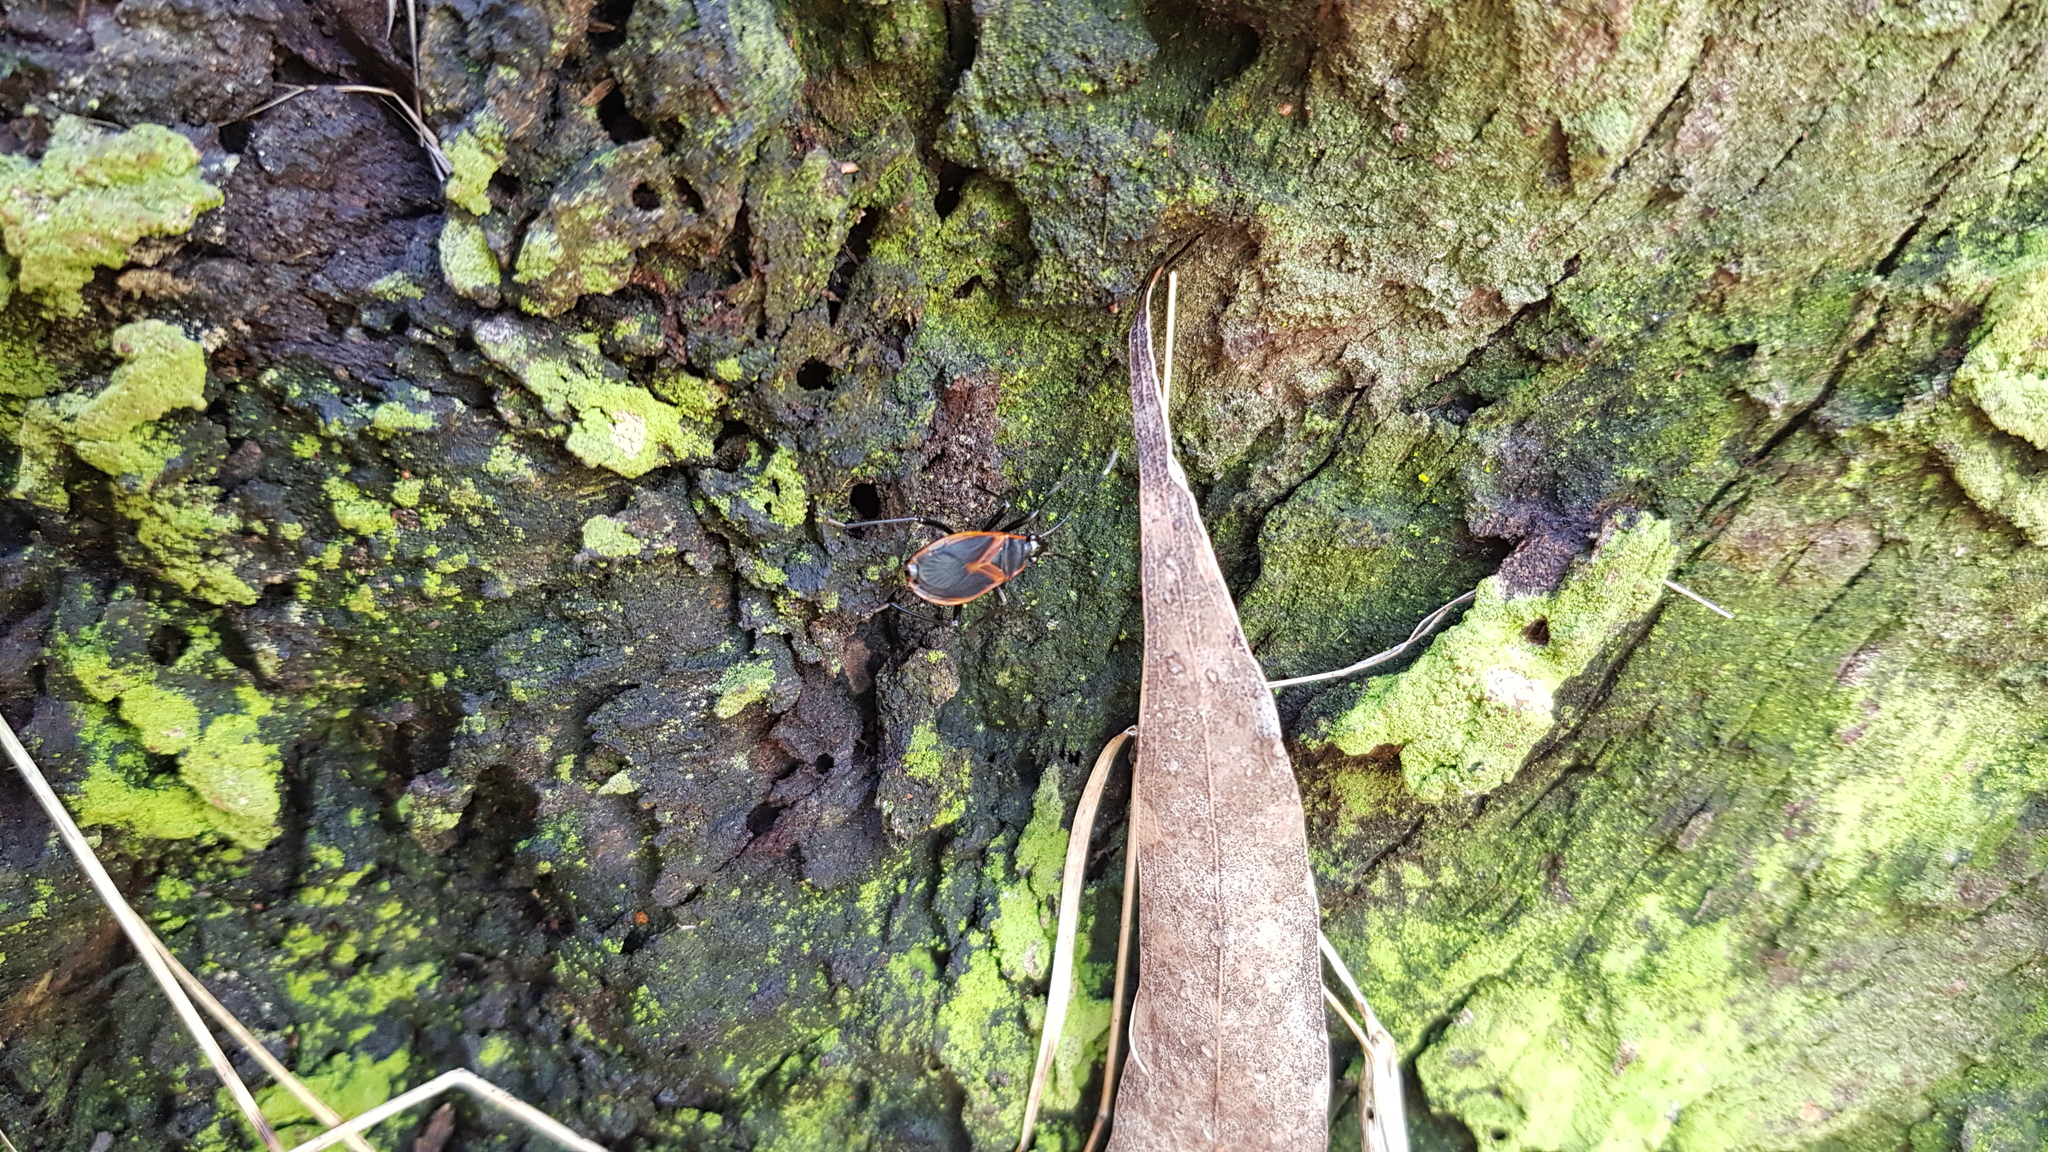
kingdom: Animalia
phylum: Arthropoda
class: Insecta
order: Hemiptera
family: Pyrrhocoridae
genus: Dindymus
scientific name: Dindymus
